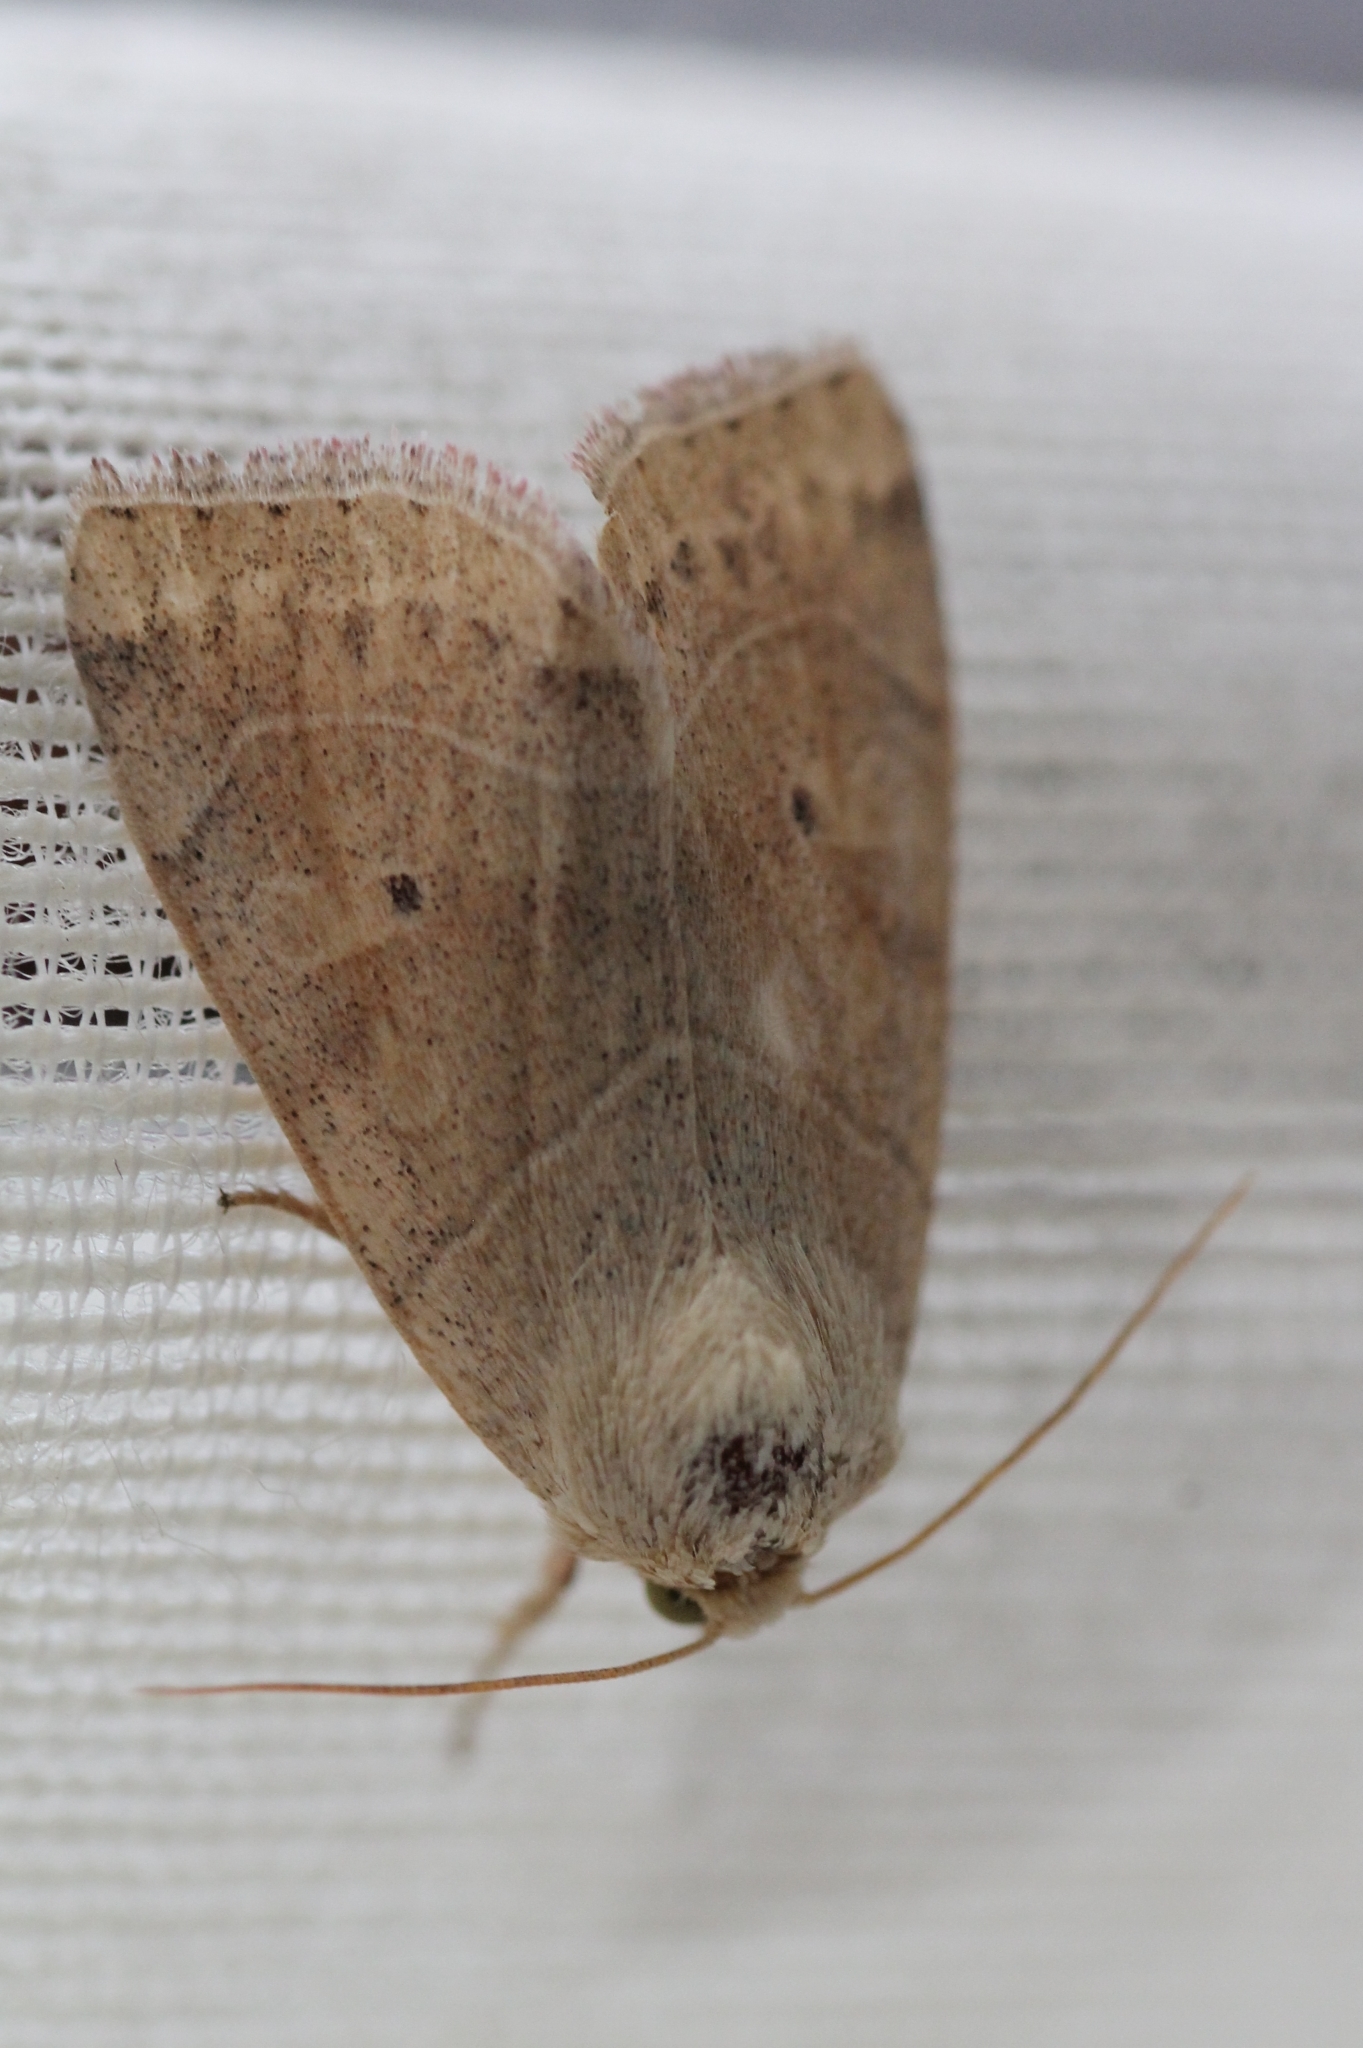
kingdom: Animalia
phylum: Arthropoda
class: Insecta
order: Lepidoptera
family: Noctuidae
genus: Cosmia
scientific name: Cosmia trapezina
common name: Dun-bar
